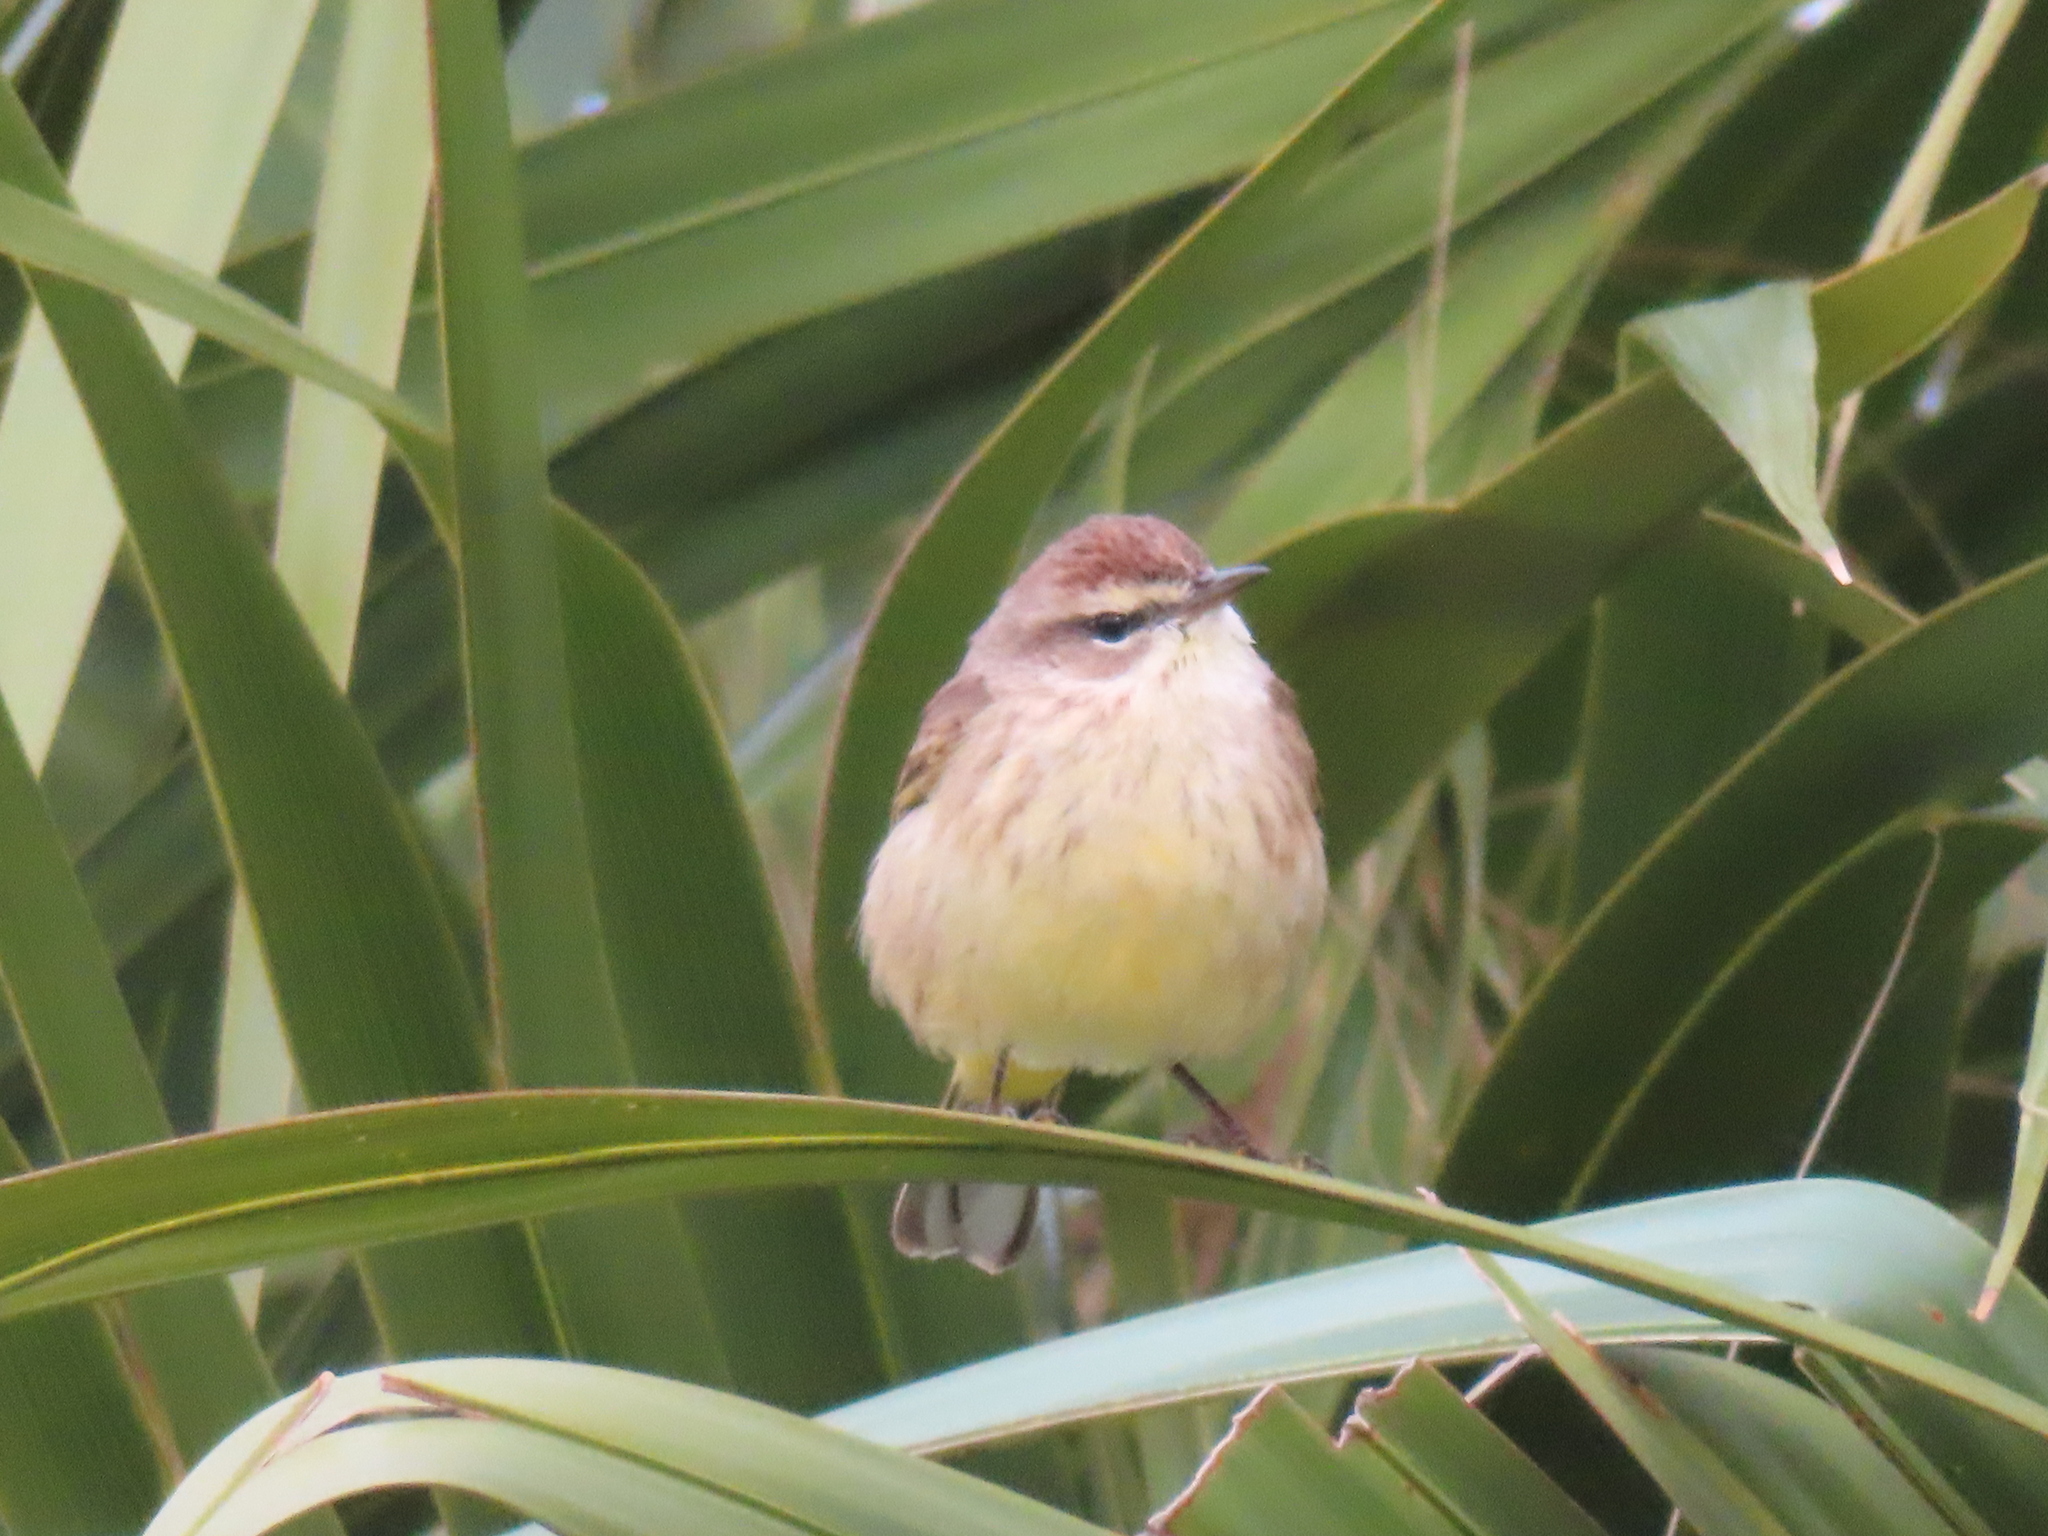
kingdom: Animalia
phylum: Chordata
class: Aves
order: Passeriformes
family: Parulidae
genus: Setophaga
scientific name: Setophaga palmarum
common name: Palm warbler
